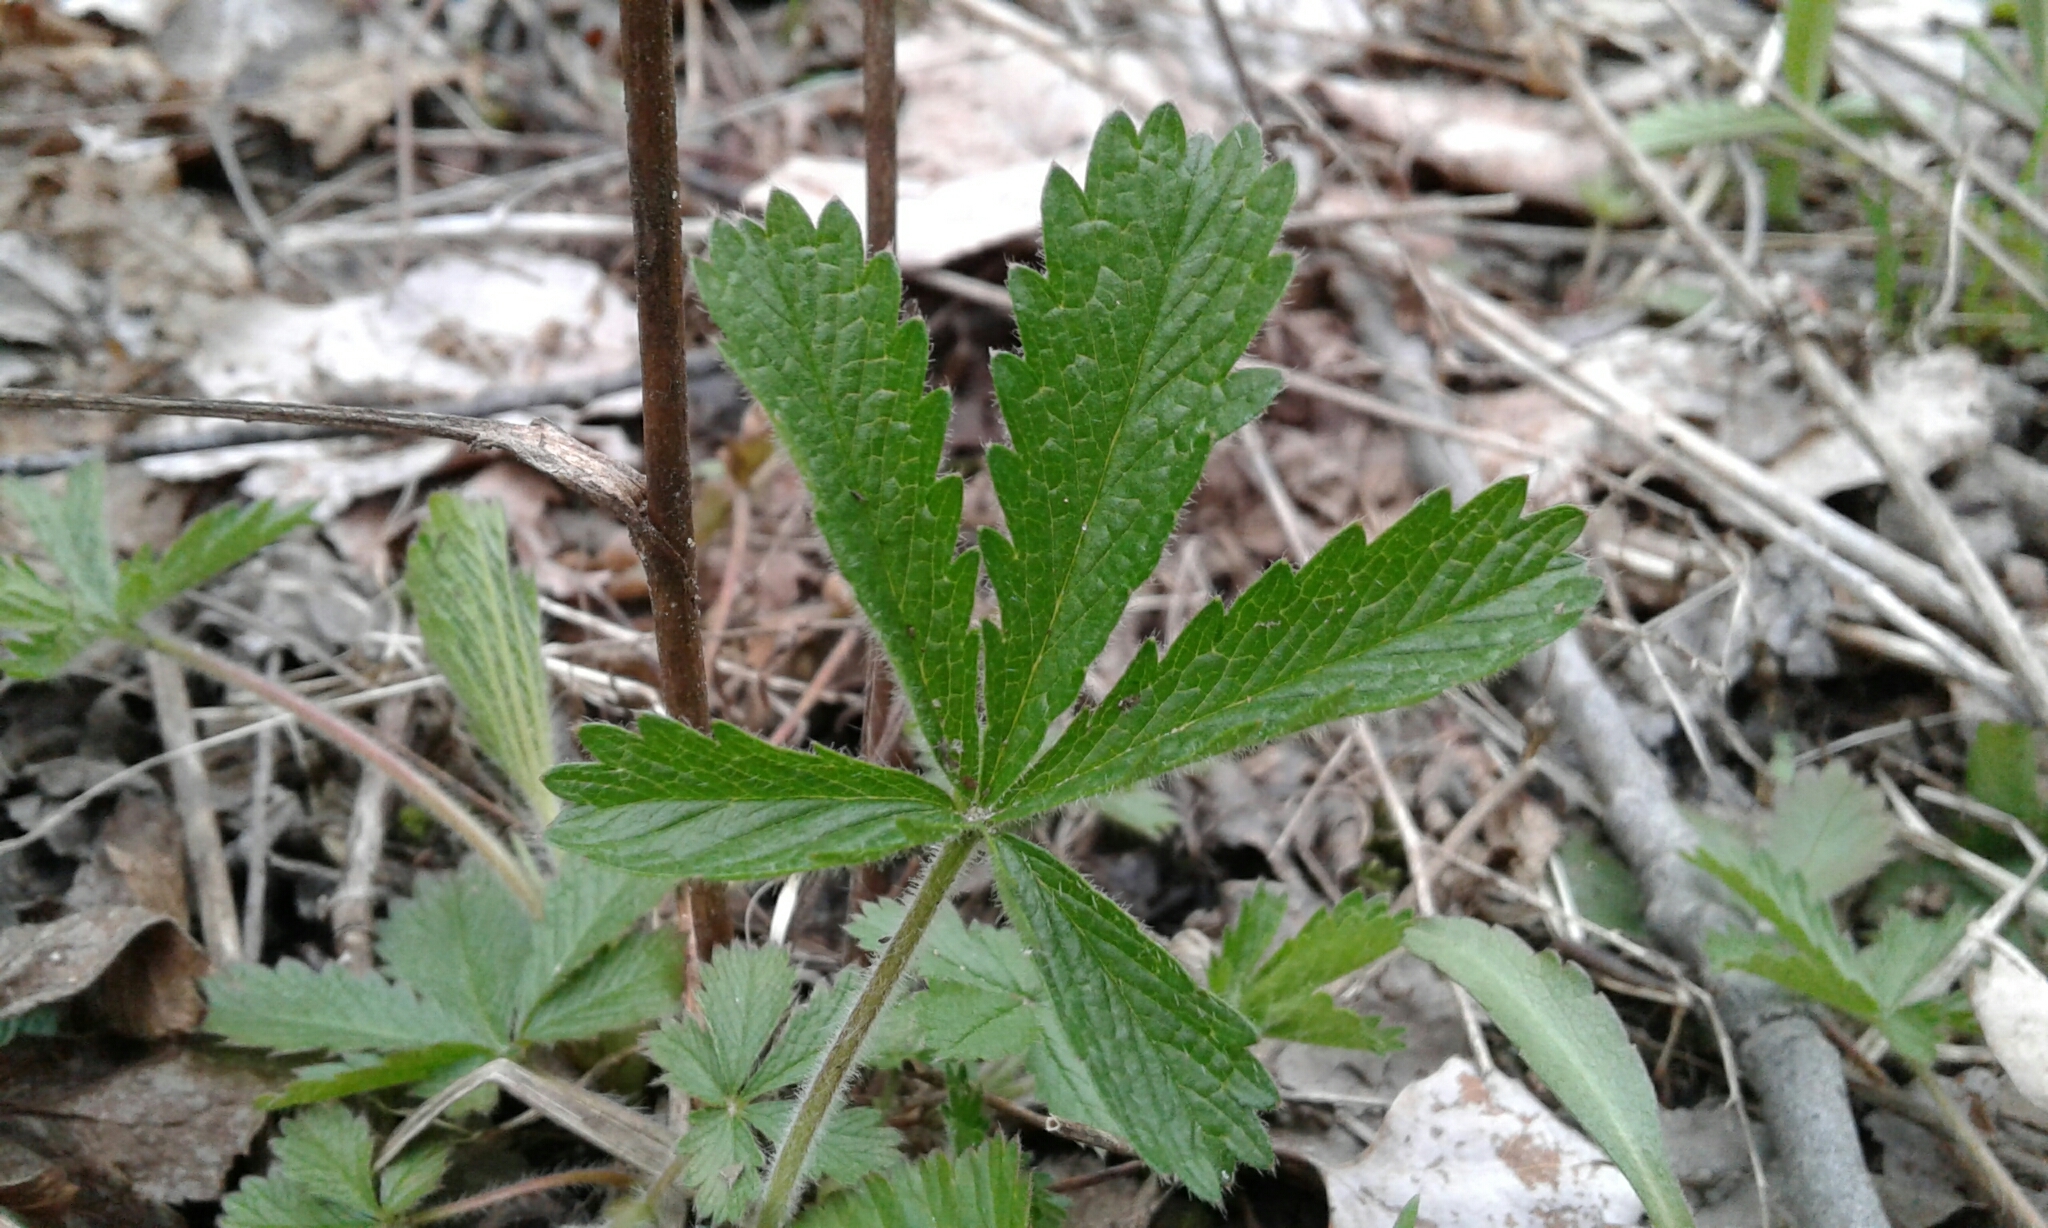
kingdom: Plantae
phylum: Tracheophyta
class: Magnoliopsida
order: Rosales
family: Rosaceae
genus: Potentilla
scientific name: Potentilla recta
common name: Sulphur cinquefoil
